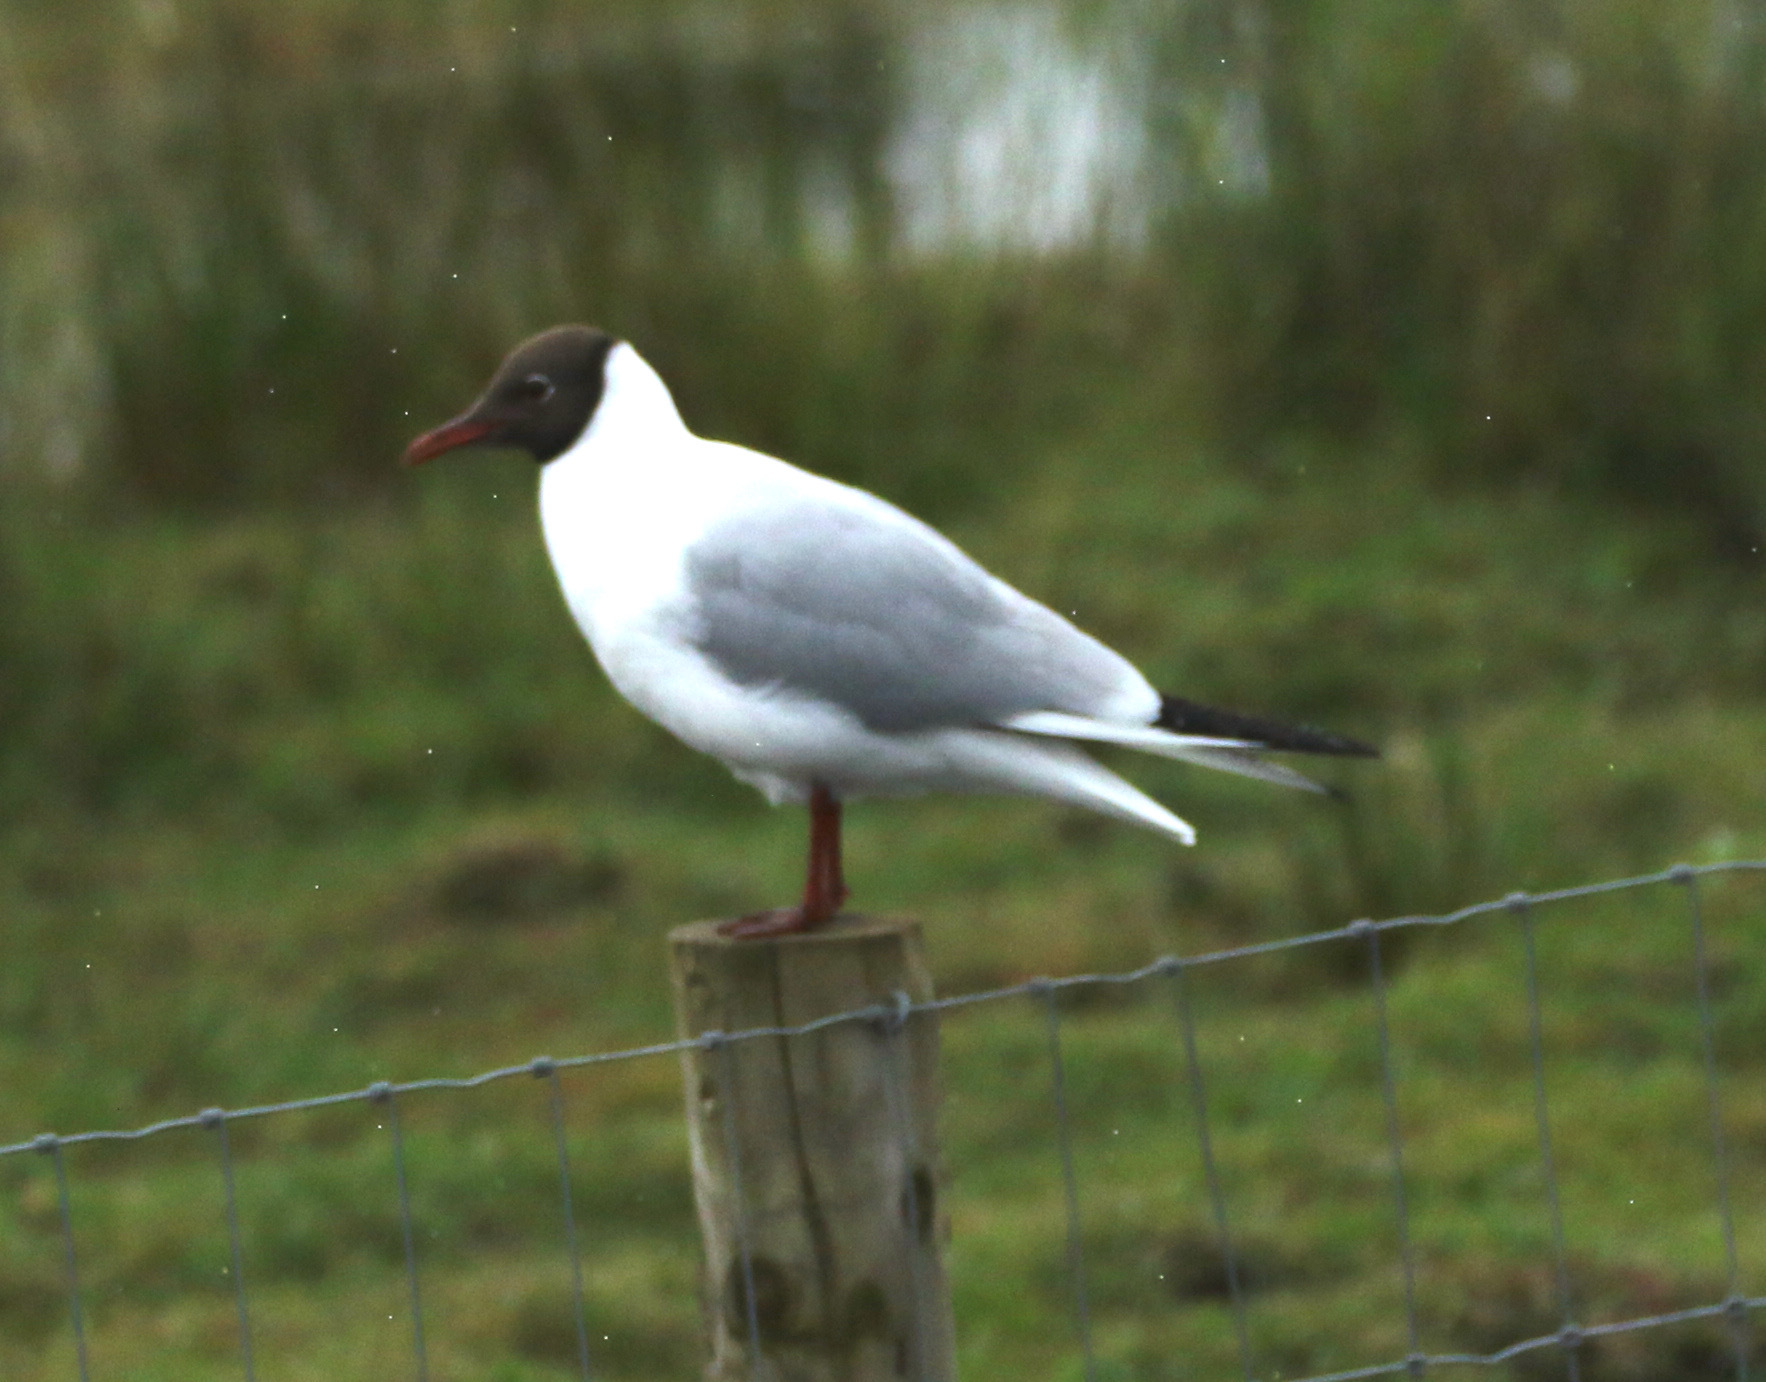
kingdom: Animalia
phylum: Chordata
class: Aves
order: Charadriiformes
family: Laridae
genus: Chroicocephalus
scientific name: Chroicocephalus ridibundus
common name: Black-headed gull
